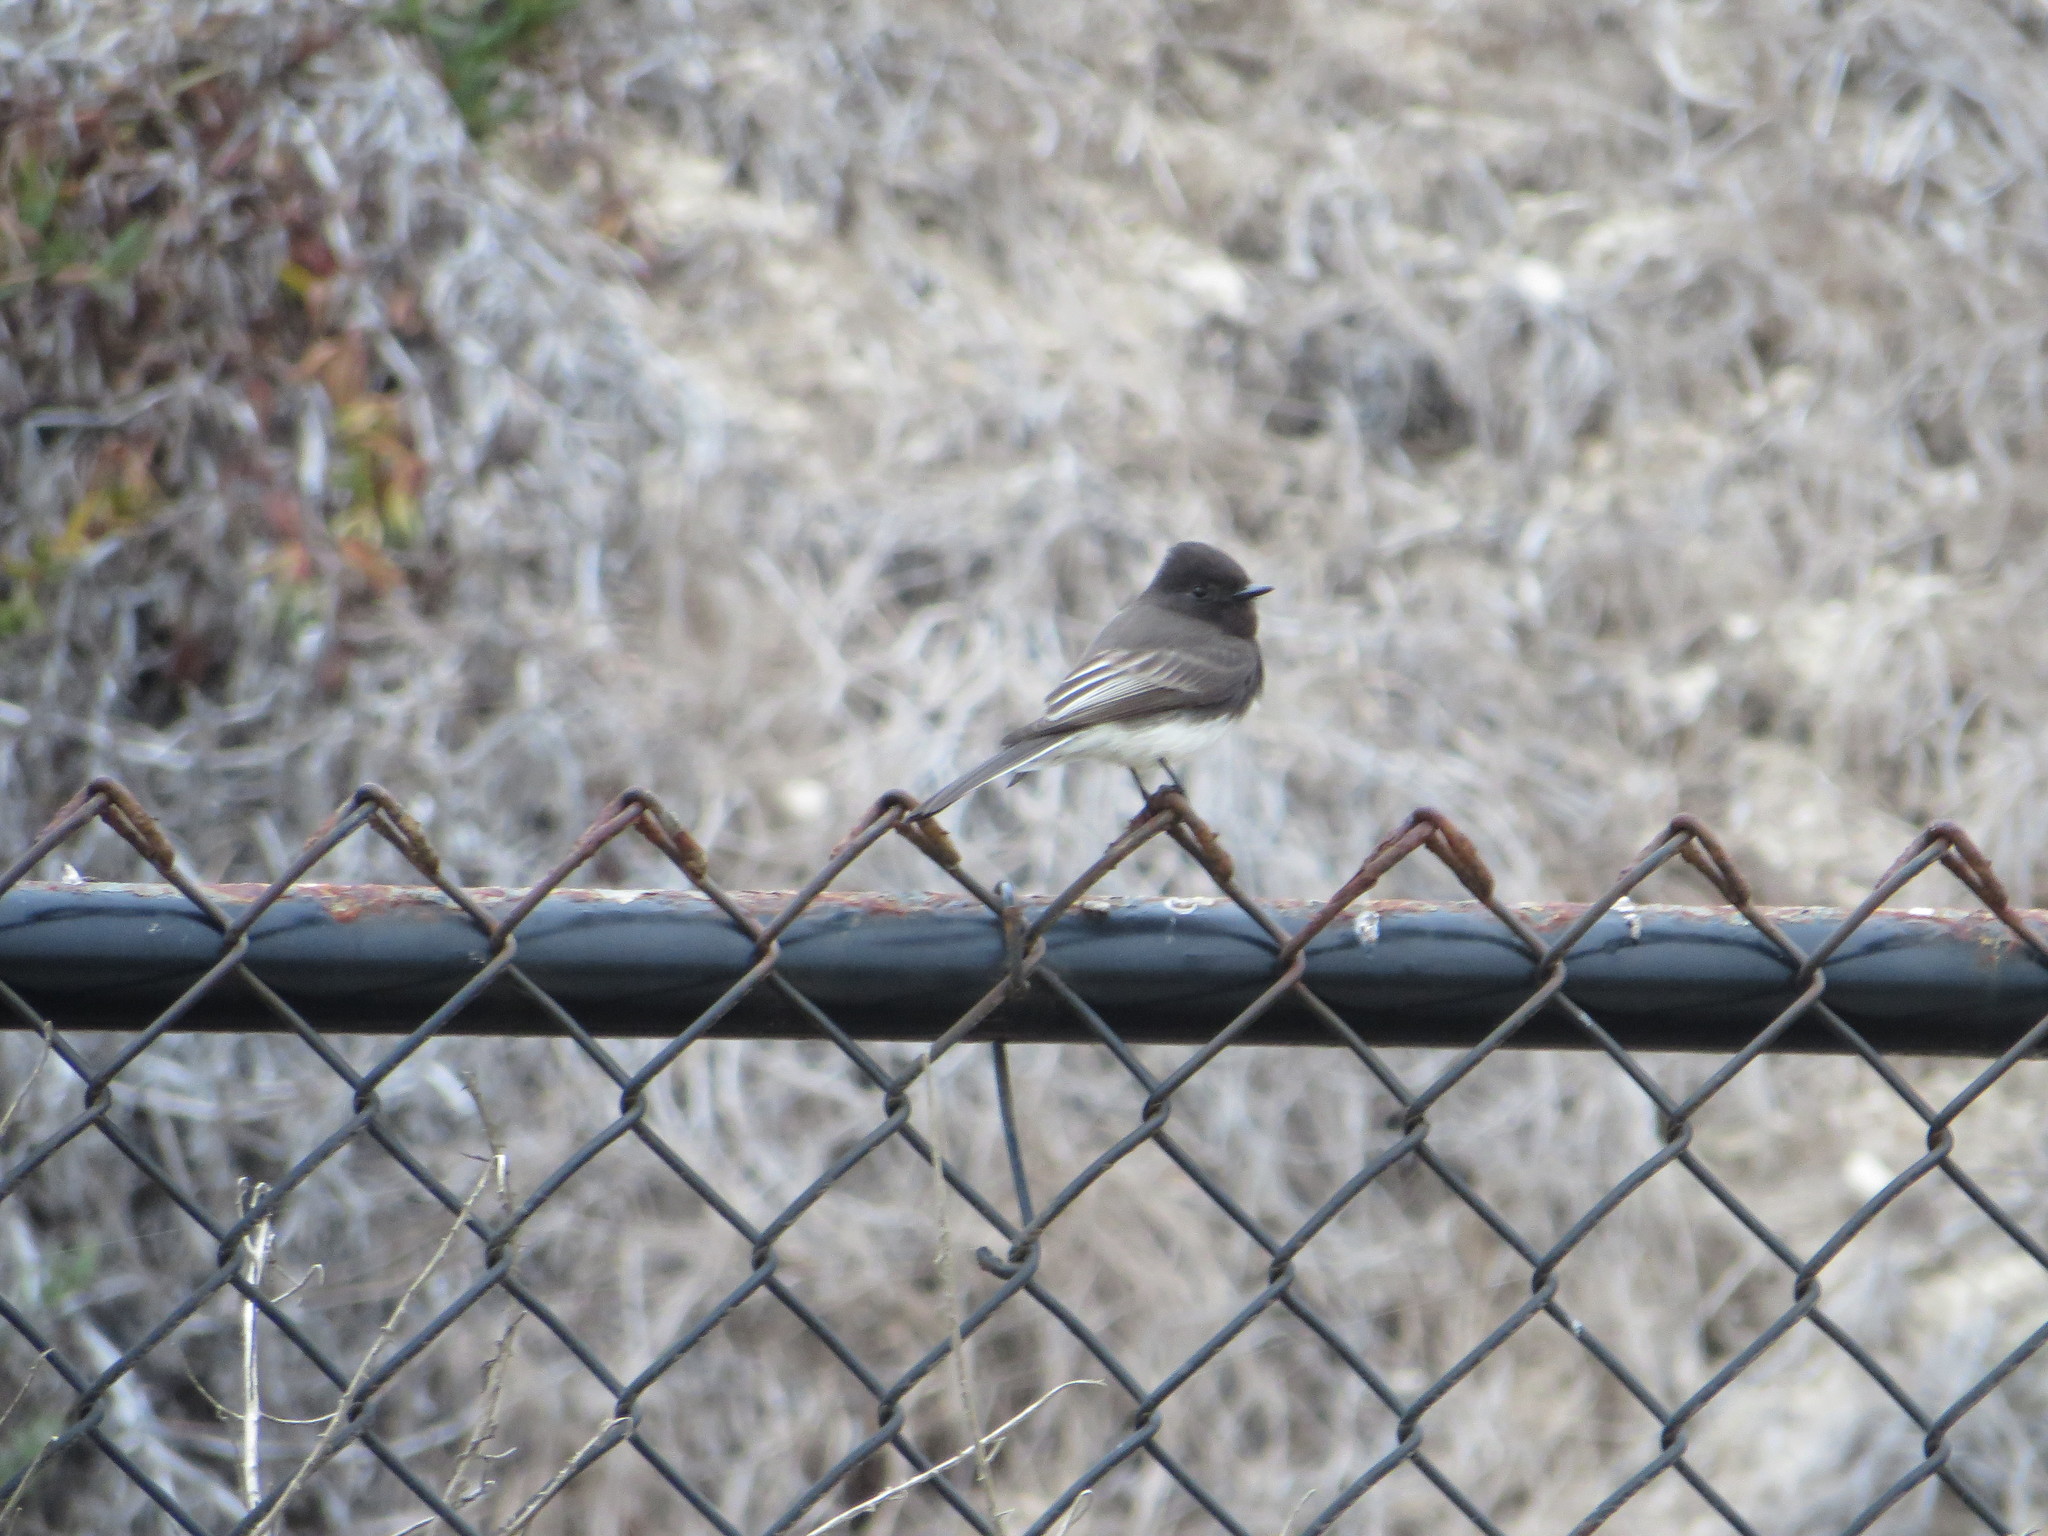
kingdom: Animalia
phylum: Chordata
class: Aves
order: Passeriformes
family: Tyrannidae
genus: Sayornis
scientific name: Sayornis nigricans
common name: Black phoebe
